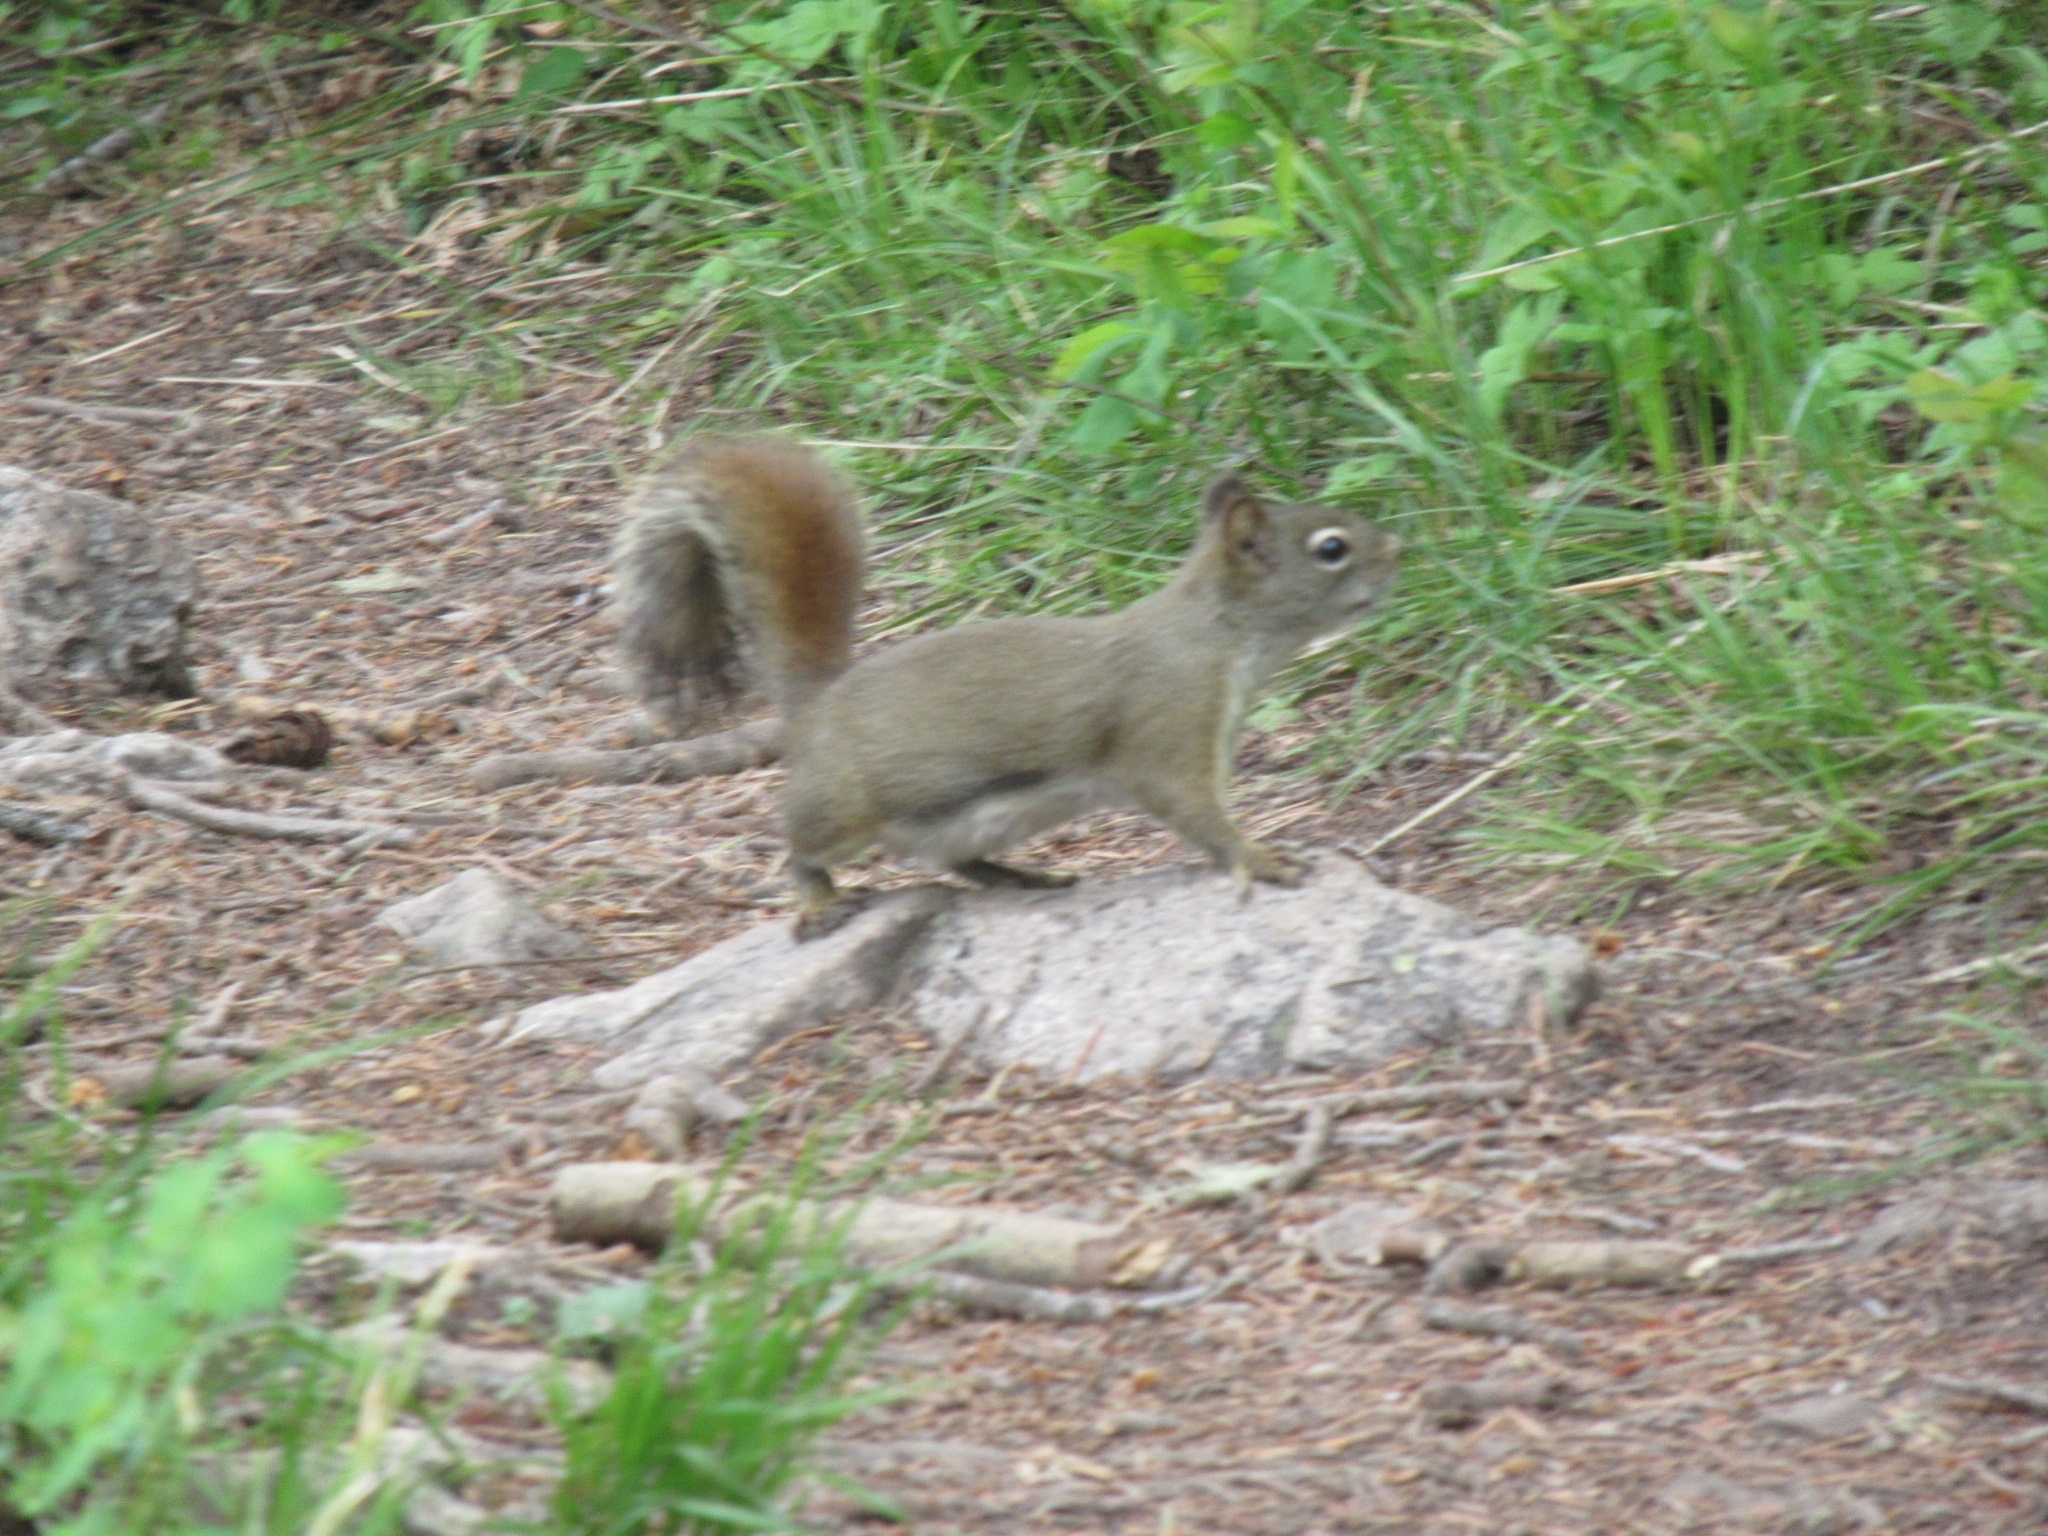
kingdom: Animalia
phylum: Chordata
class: Mammalia
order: Rodentia
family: Sciuridae
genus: Tamiasciurus
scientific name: Tamiasciurus hudsonicus
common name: Red squirrel
